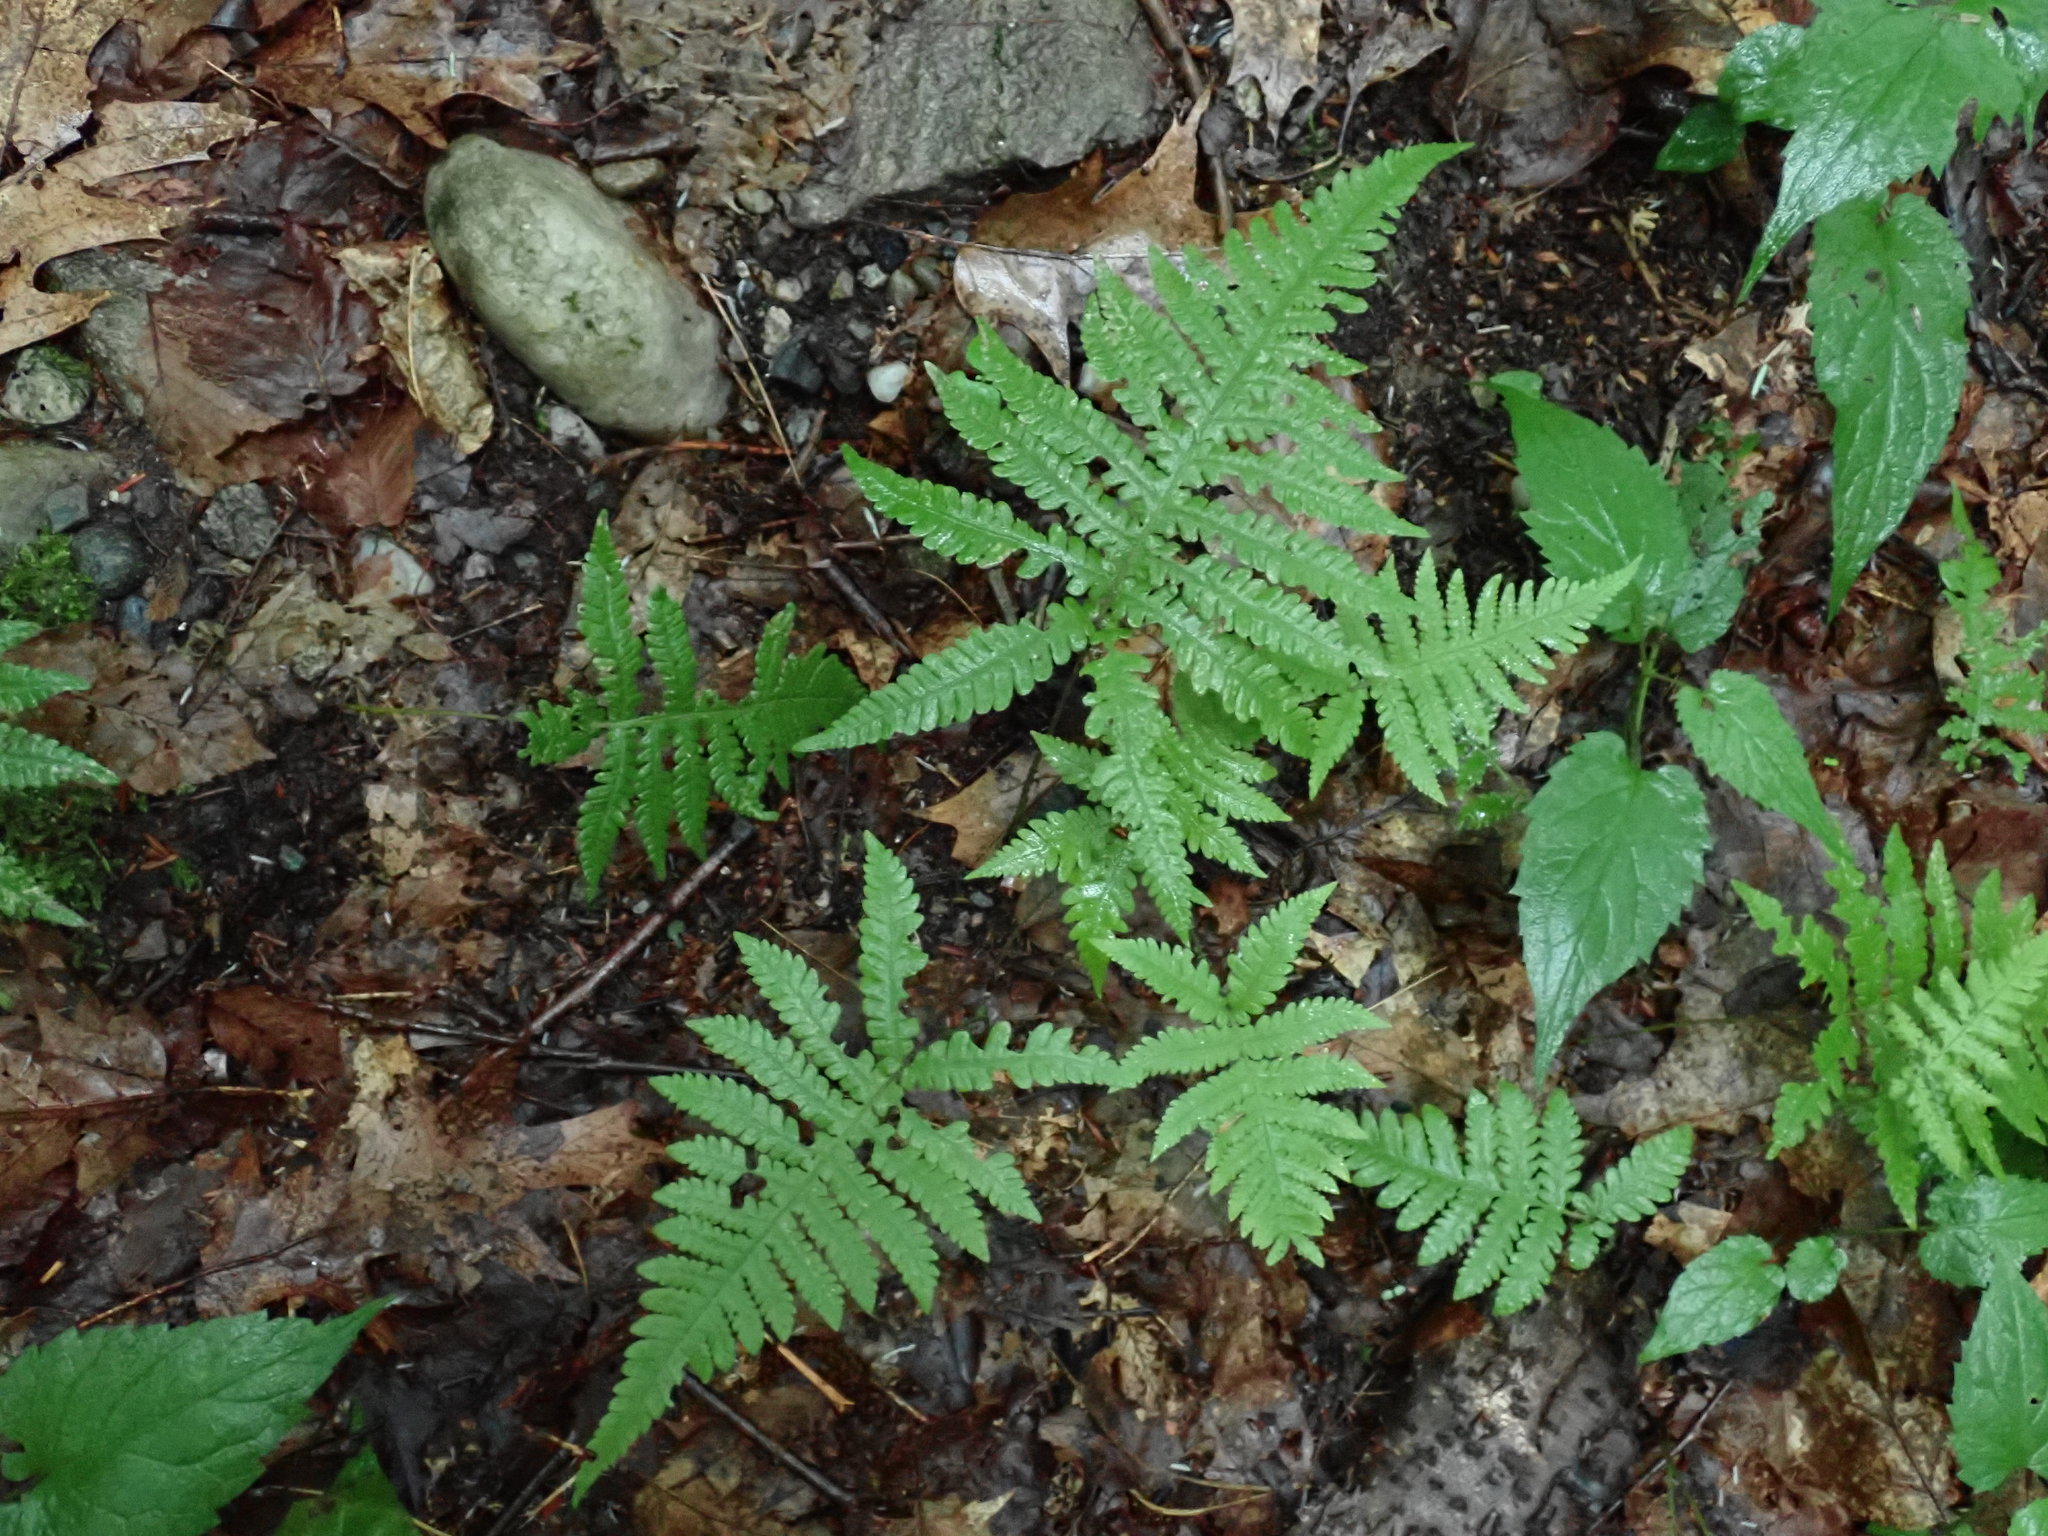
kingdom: Plantae
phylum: Tracheophyta
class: Polypodiopsida
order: Polypodiales
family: Thelypteridaceae
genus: Phegopteris
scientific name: Phegopteris connectilis
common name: Beech fern
